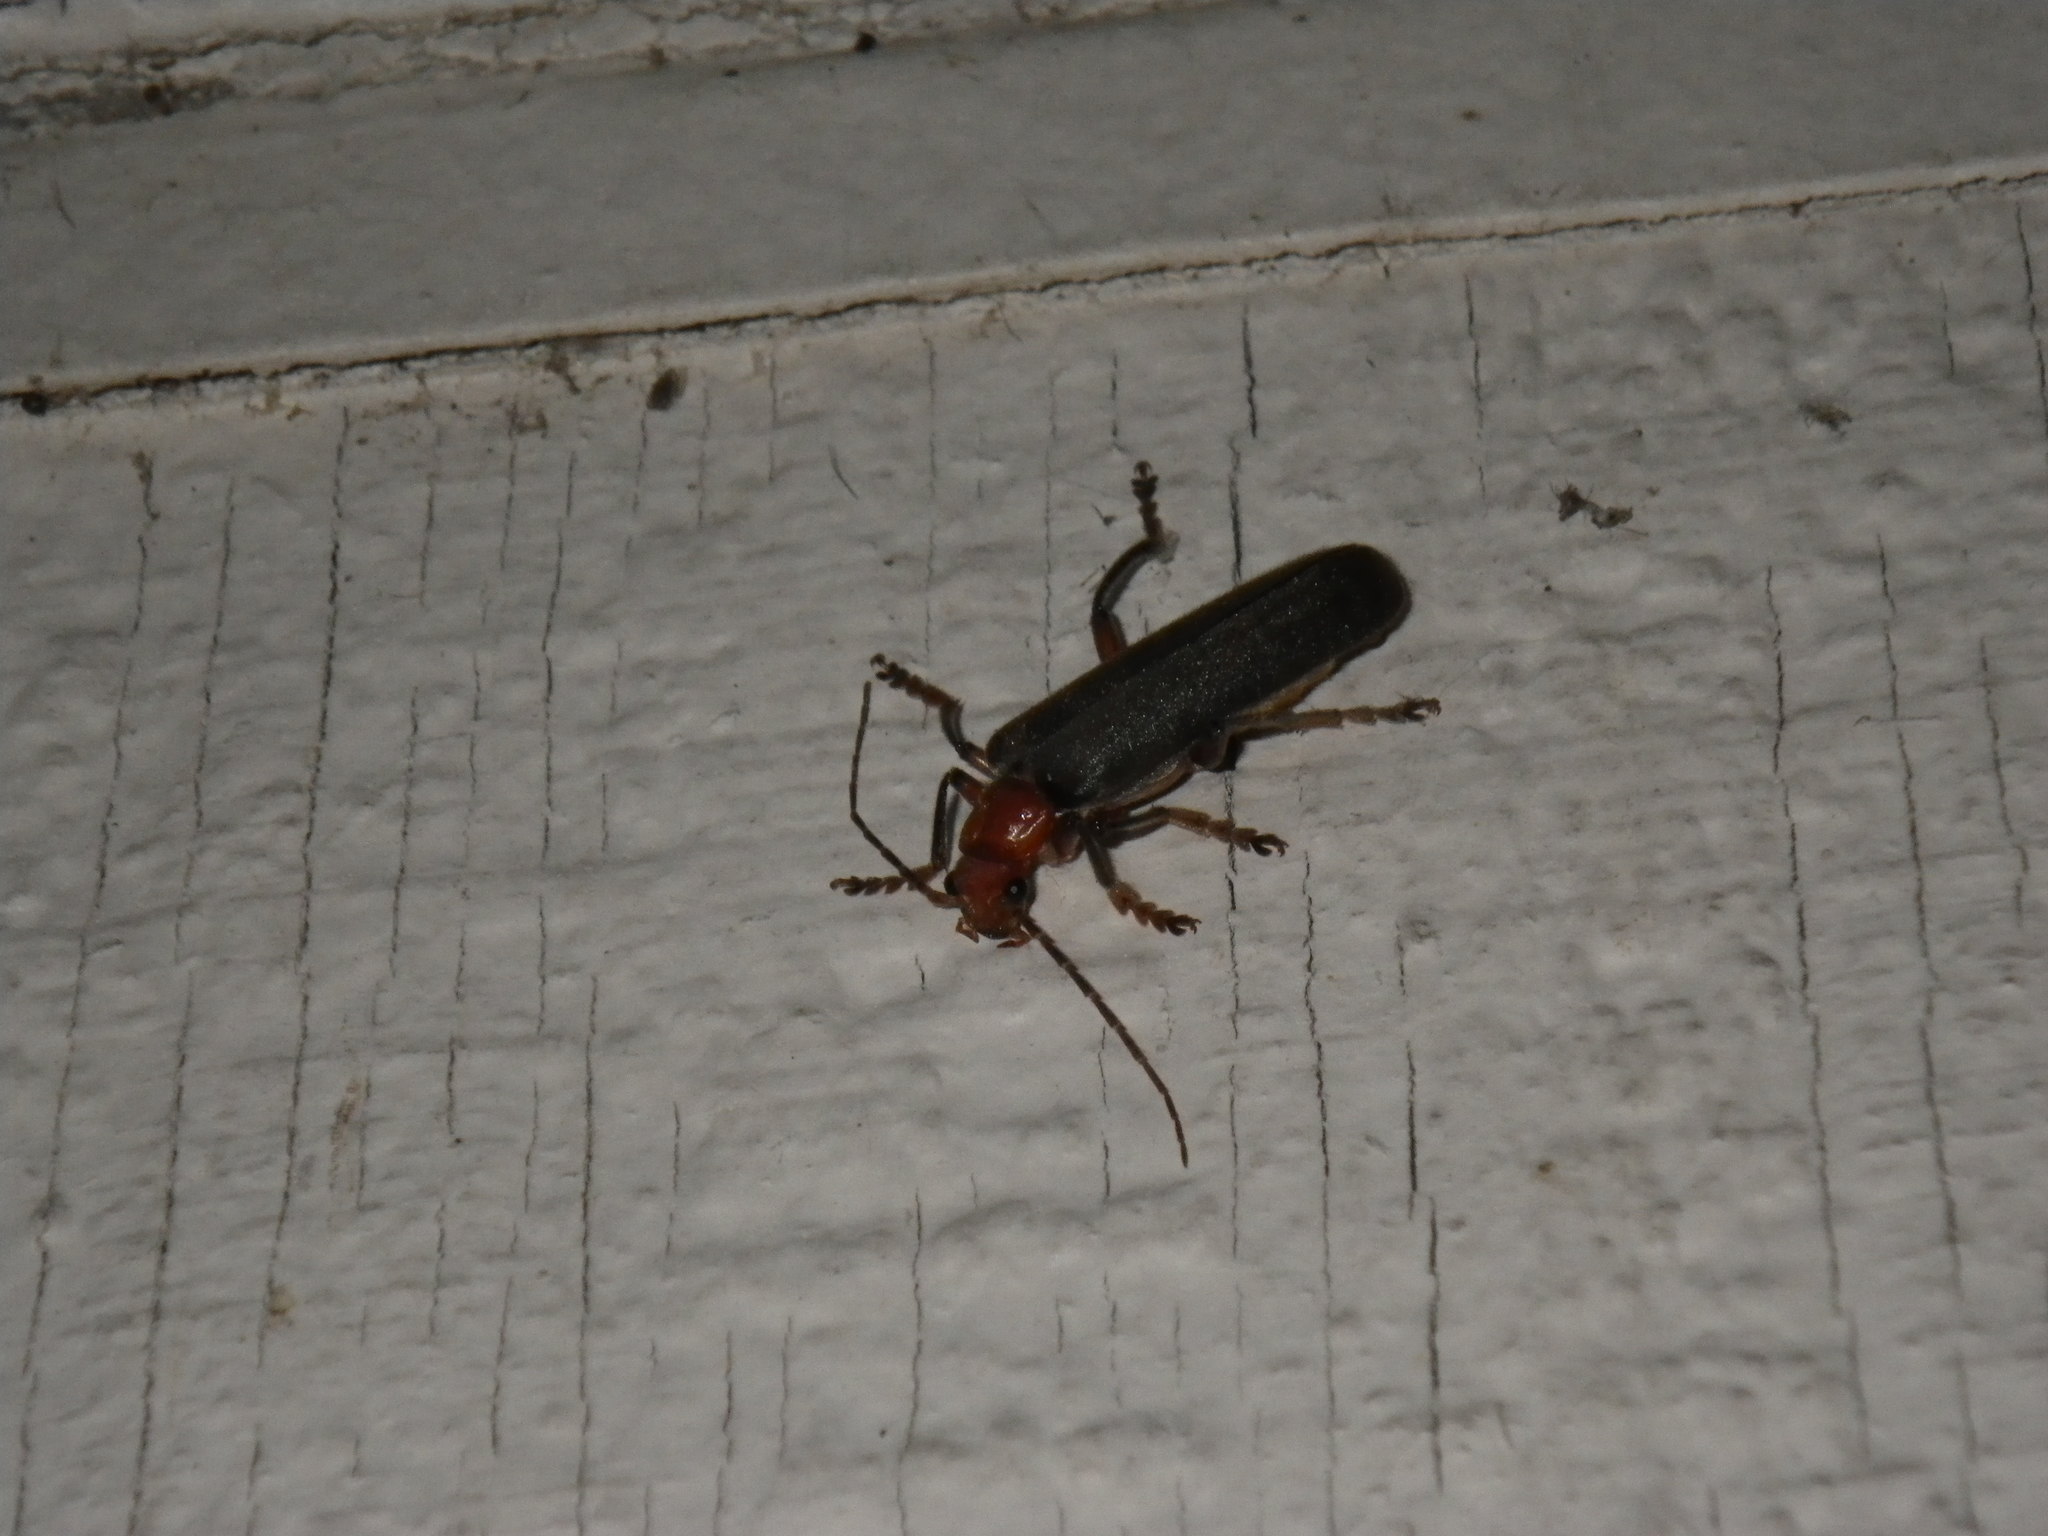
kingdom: Animalia
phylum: Arthropoda
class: Insecta
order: Coleoptera
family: Cantharidae
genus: Pacificanthia
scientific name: Pacificanthia consors
